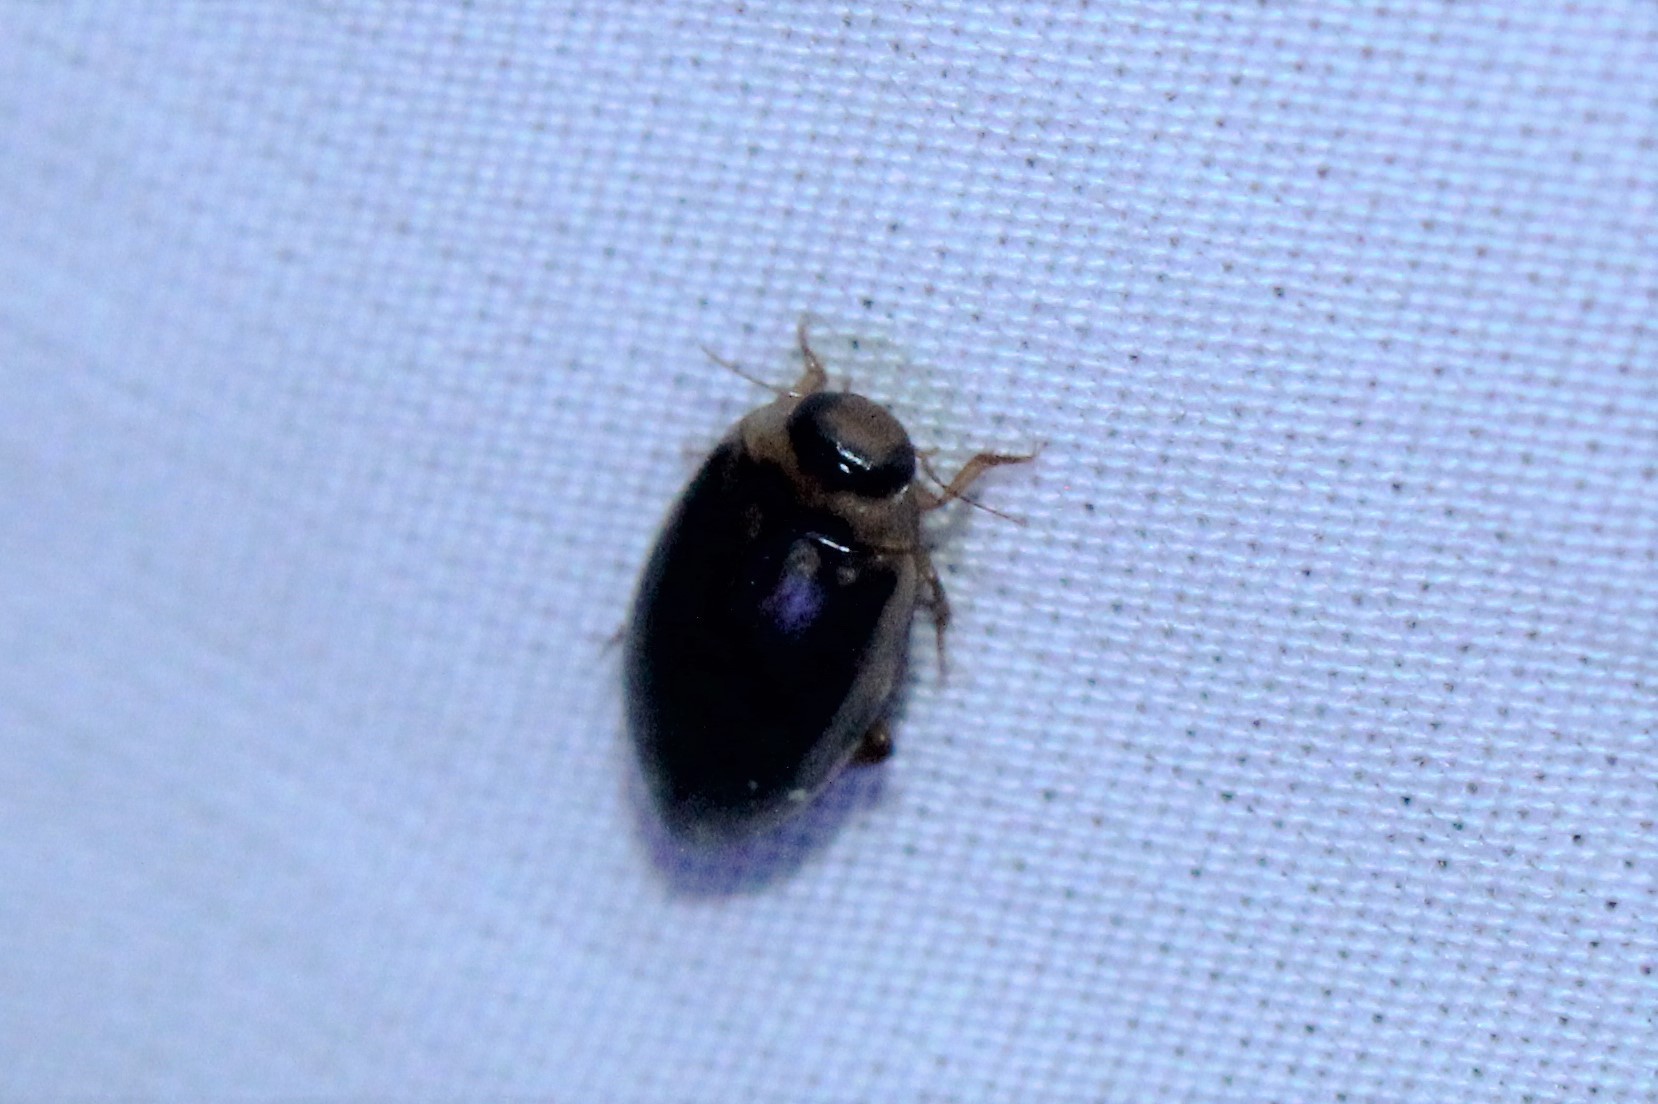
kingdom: Animalia
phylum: Arthropoda
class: Insecta
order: Coleoptera
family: Dytiscidae
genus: Coptotomus
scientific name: Coptotomus
